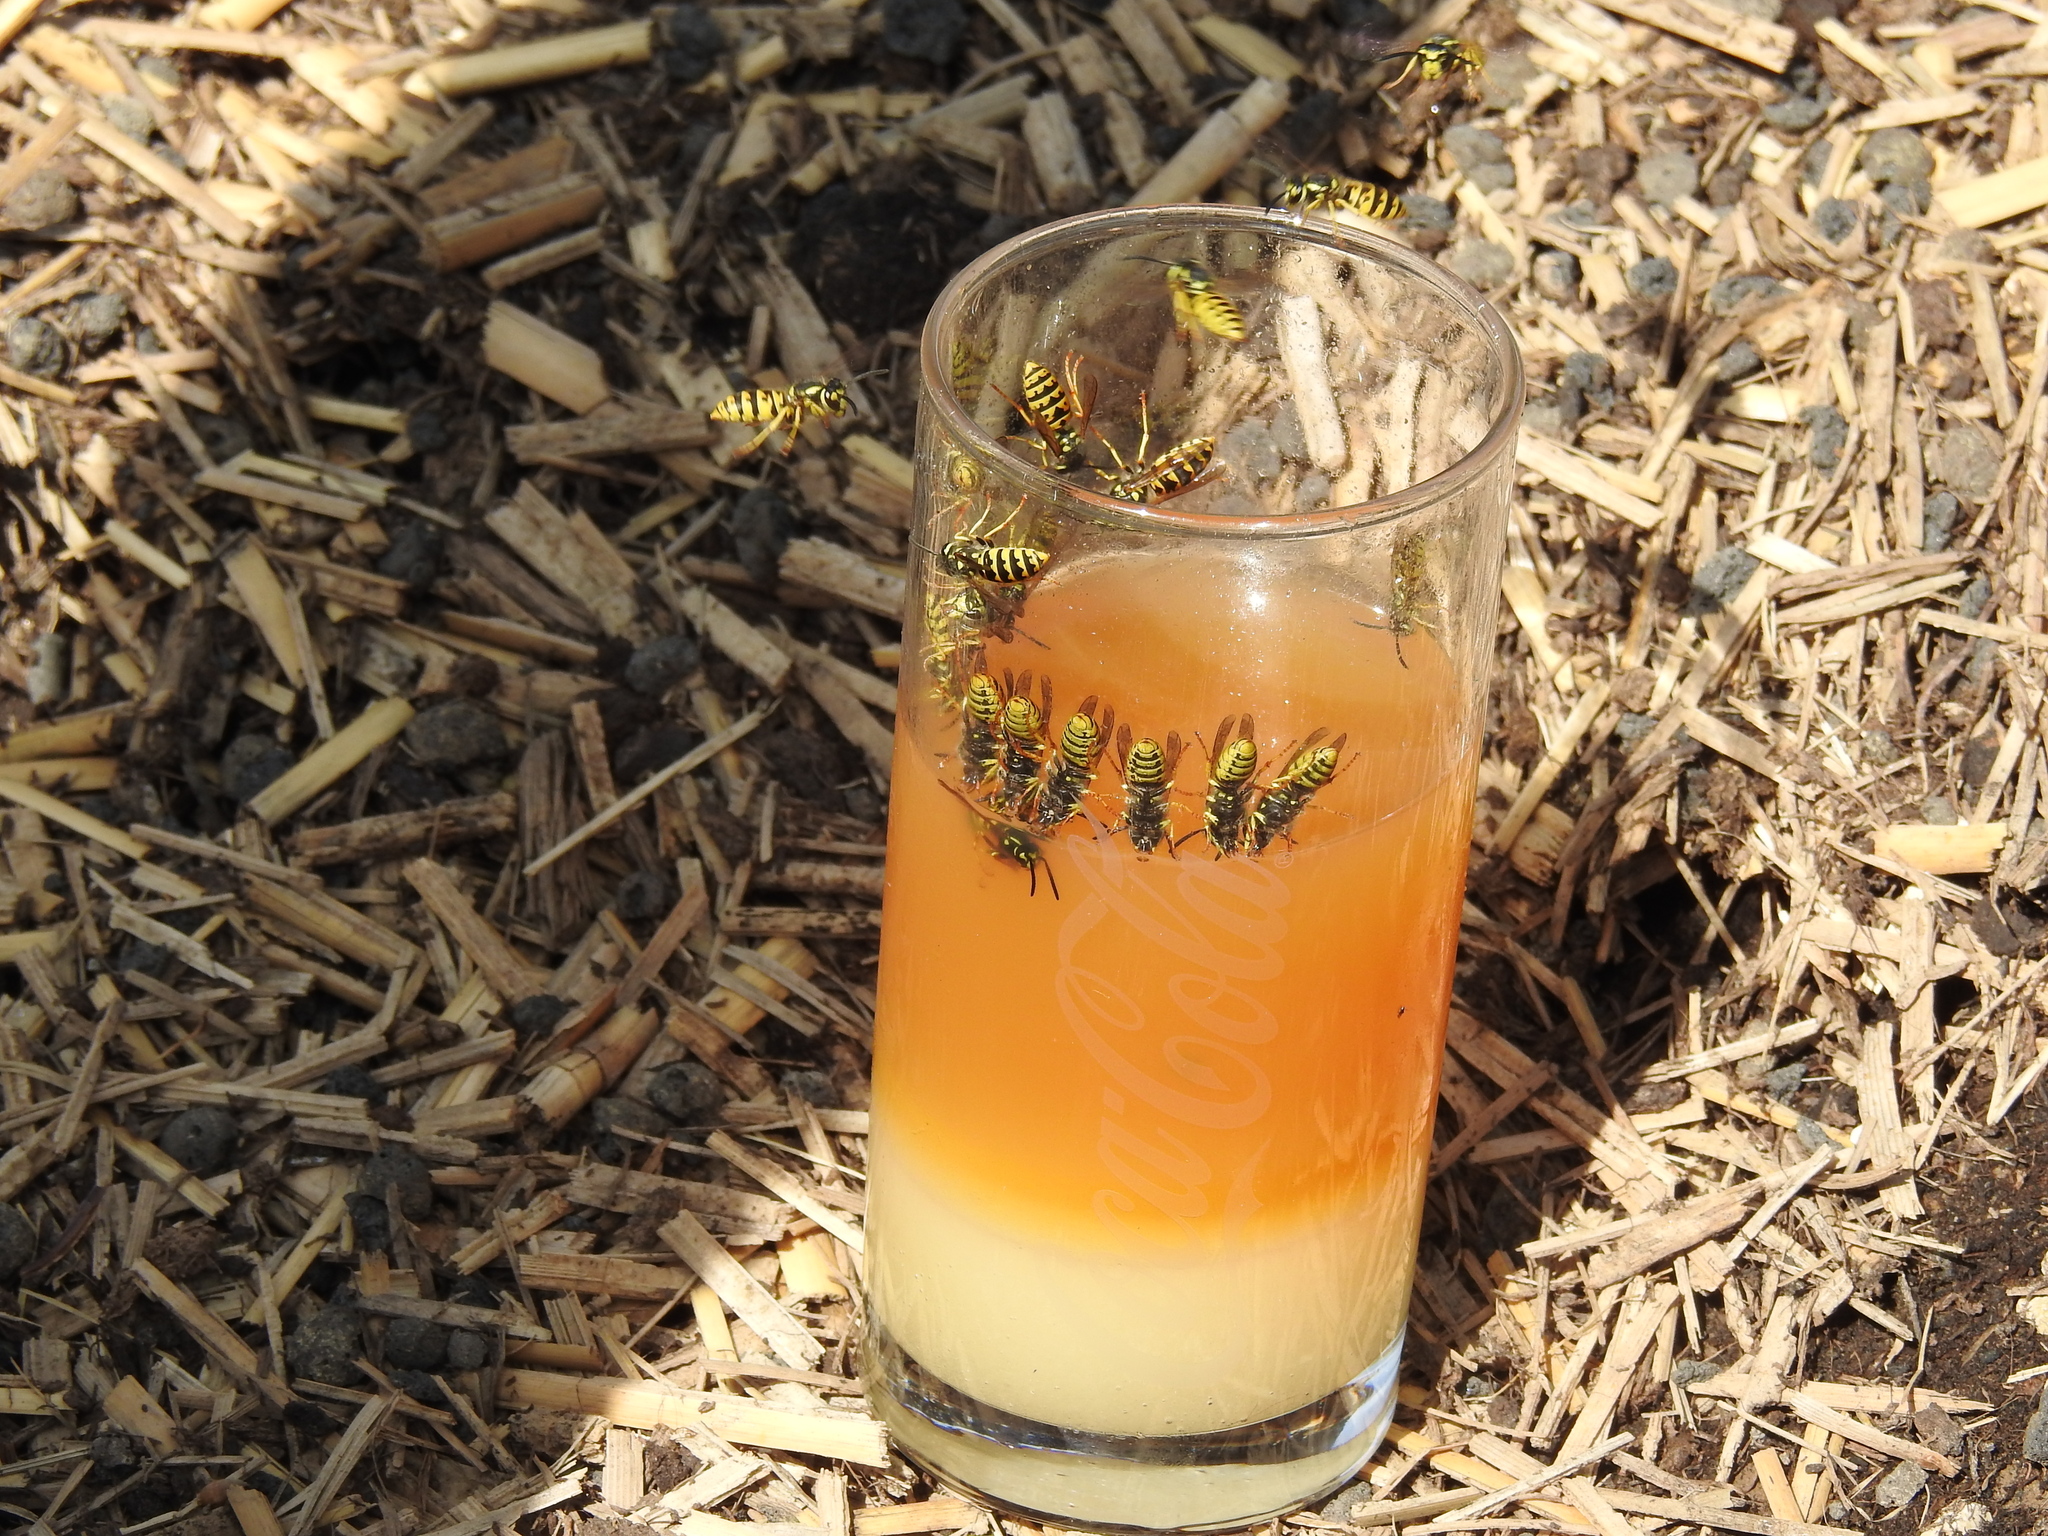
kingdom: Animalia
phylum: Arthropoda
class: Insecta
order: Hymenoptera
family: Vespidae
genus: Vespula
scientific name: Vespula germanica
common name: German wasp
